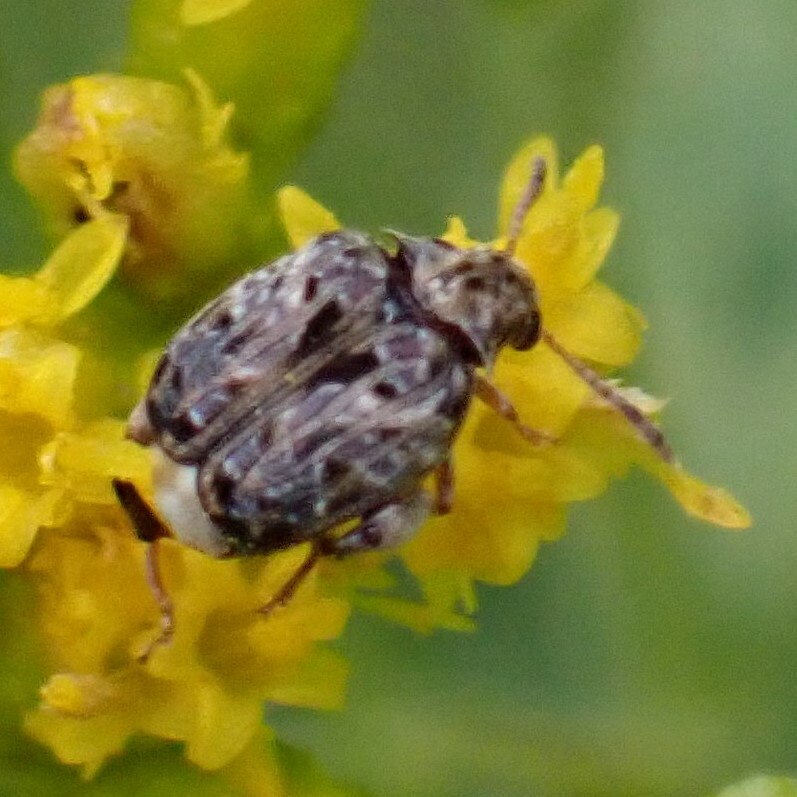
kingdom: Animalia
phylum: Arthropoda
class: Insecta
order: Coleoptera
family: Chrysomelidae
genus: Gibbobruchus
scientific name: Gibbobruchus mimus
